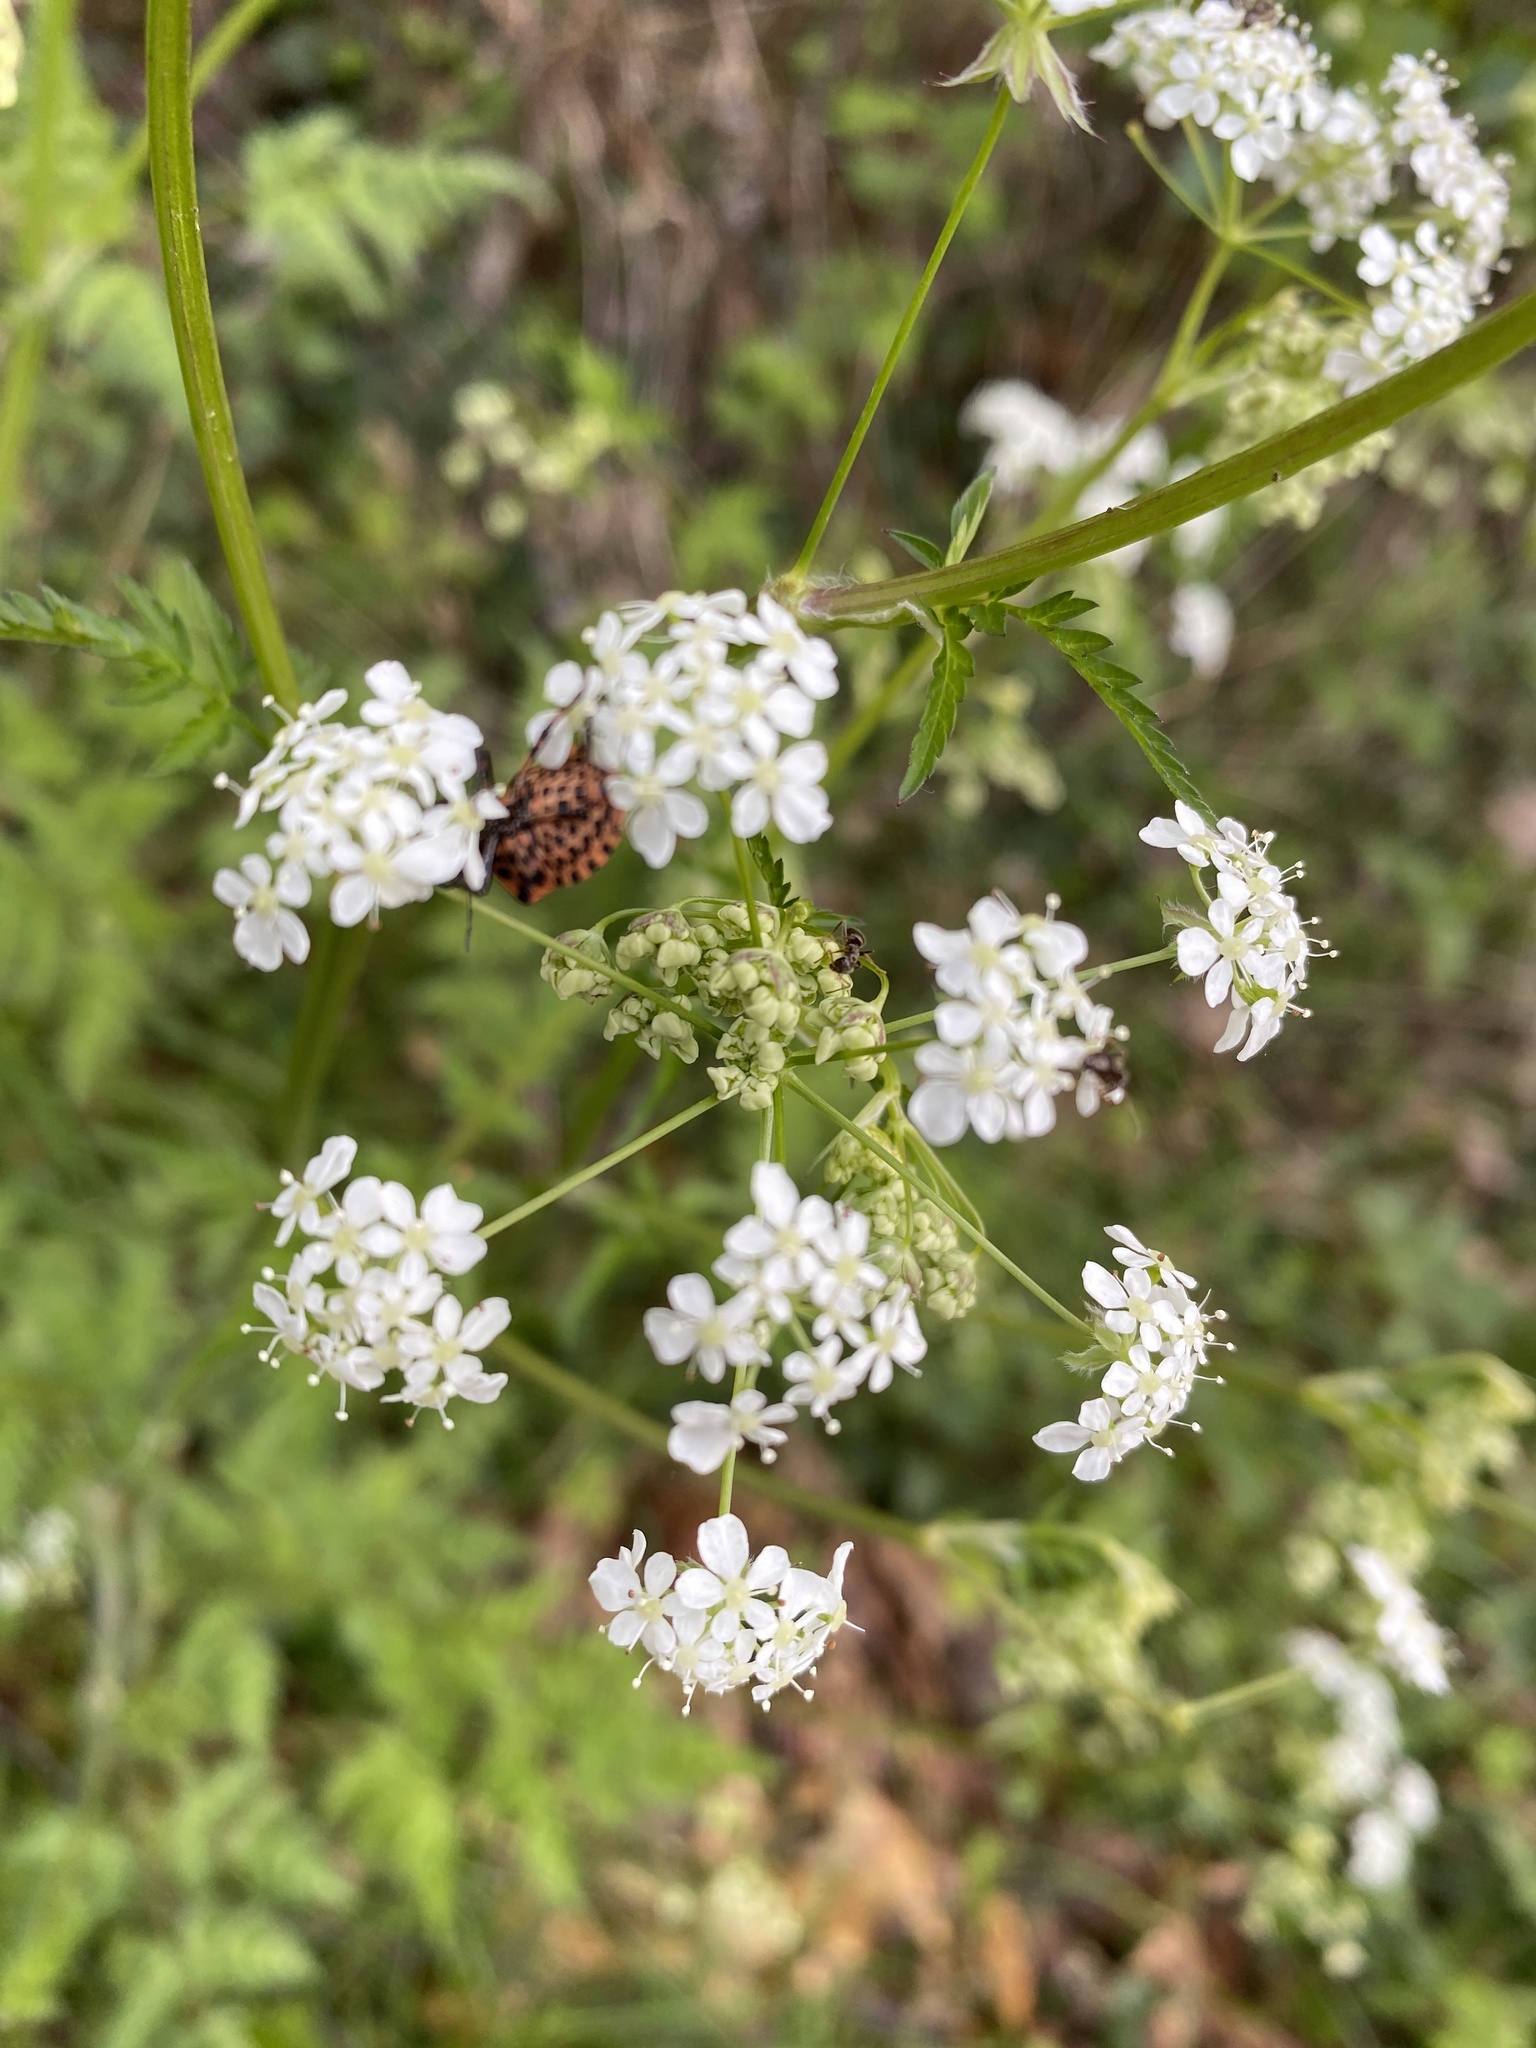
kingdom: Animalia
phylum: Arthropoda
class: Insecta
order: Hemiptera
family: Pentatomidae
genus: Graphosoma
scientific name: Graphosoma italicum
